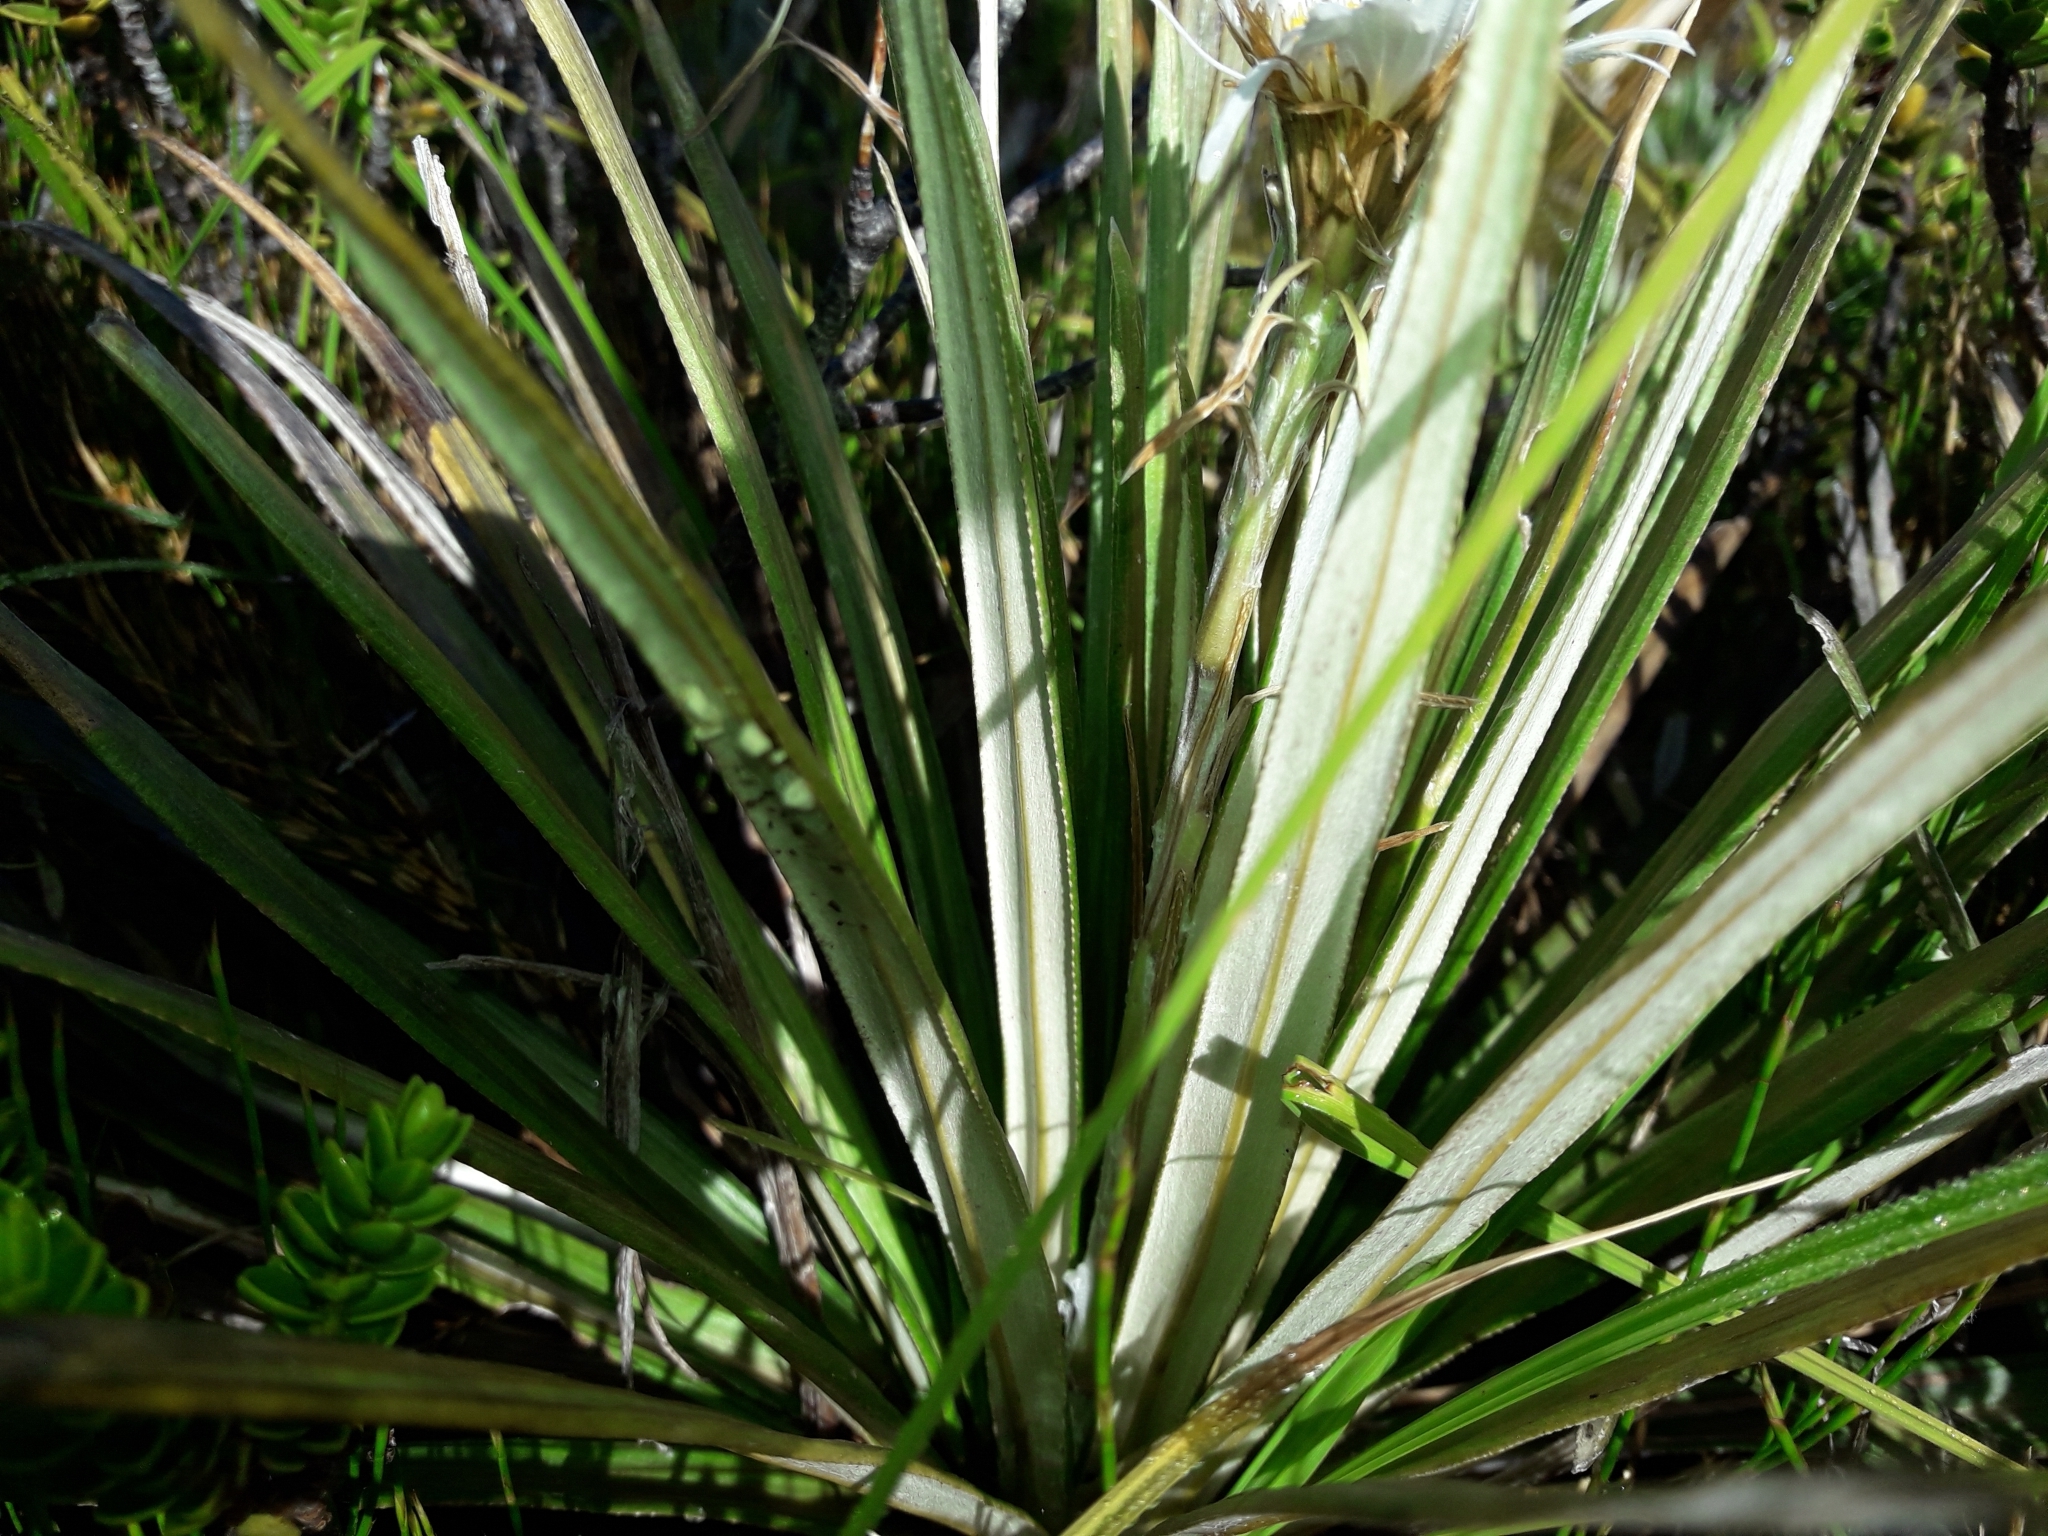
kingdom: Plantae
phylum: Tracheophyta
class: Magnoliopsida
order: Asterales
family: Asteraceae
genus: Celmisia
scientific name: Celmisia armstrongii
